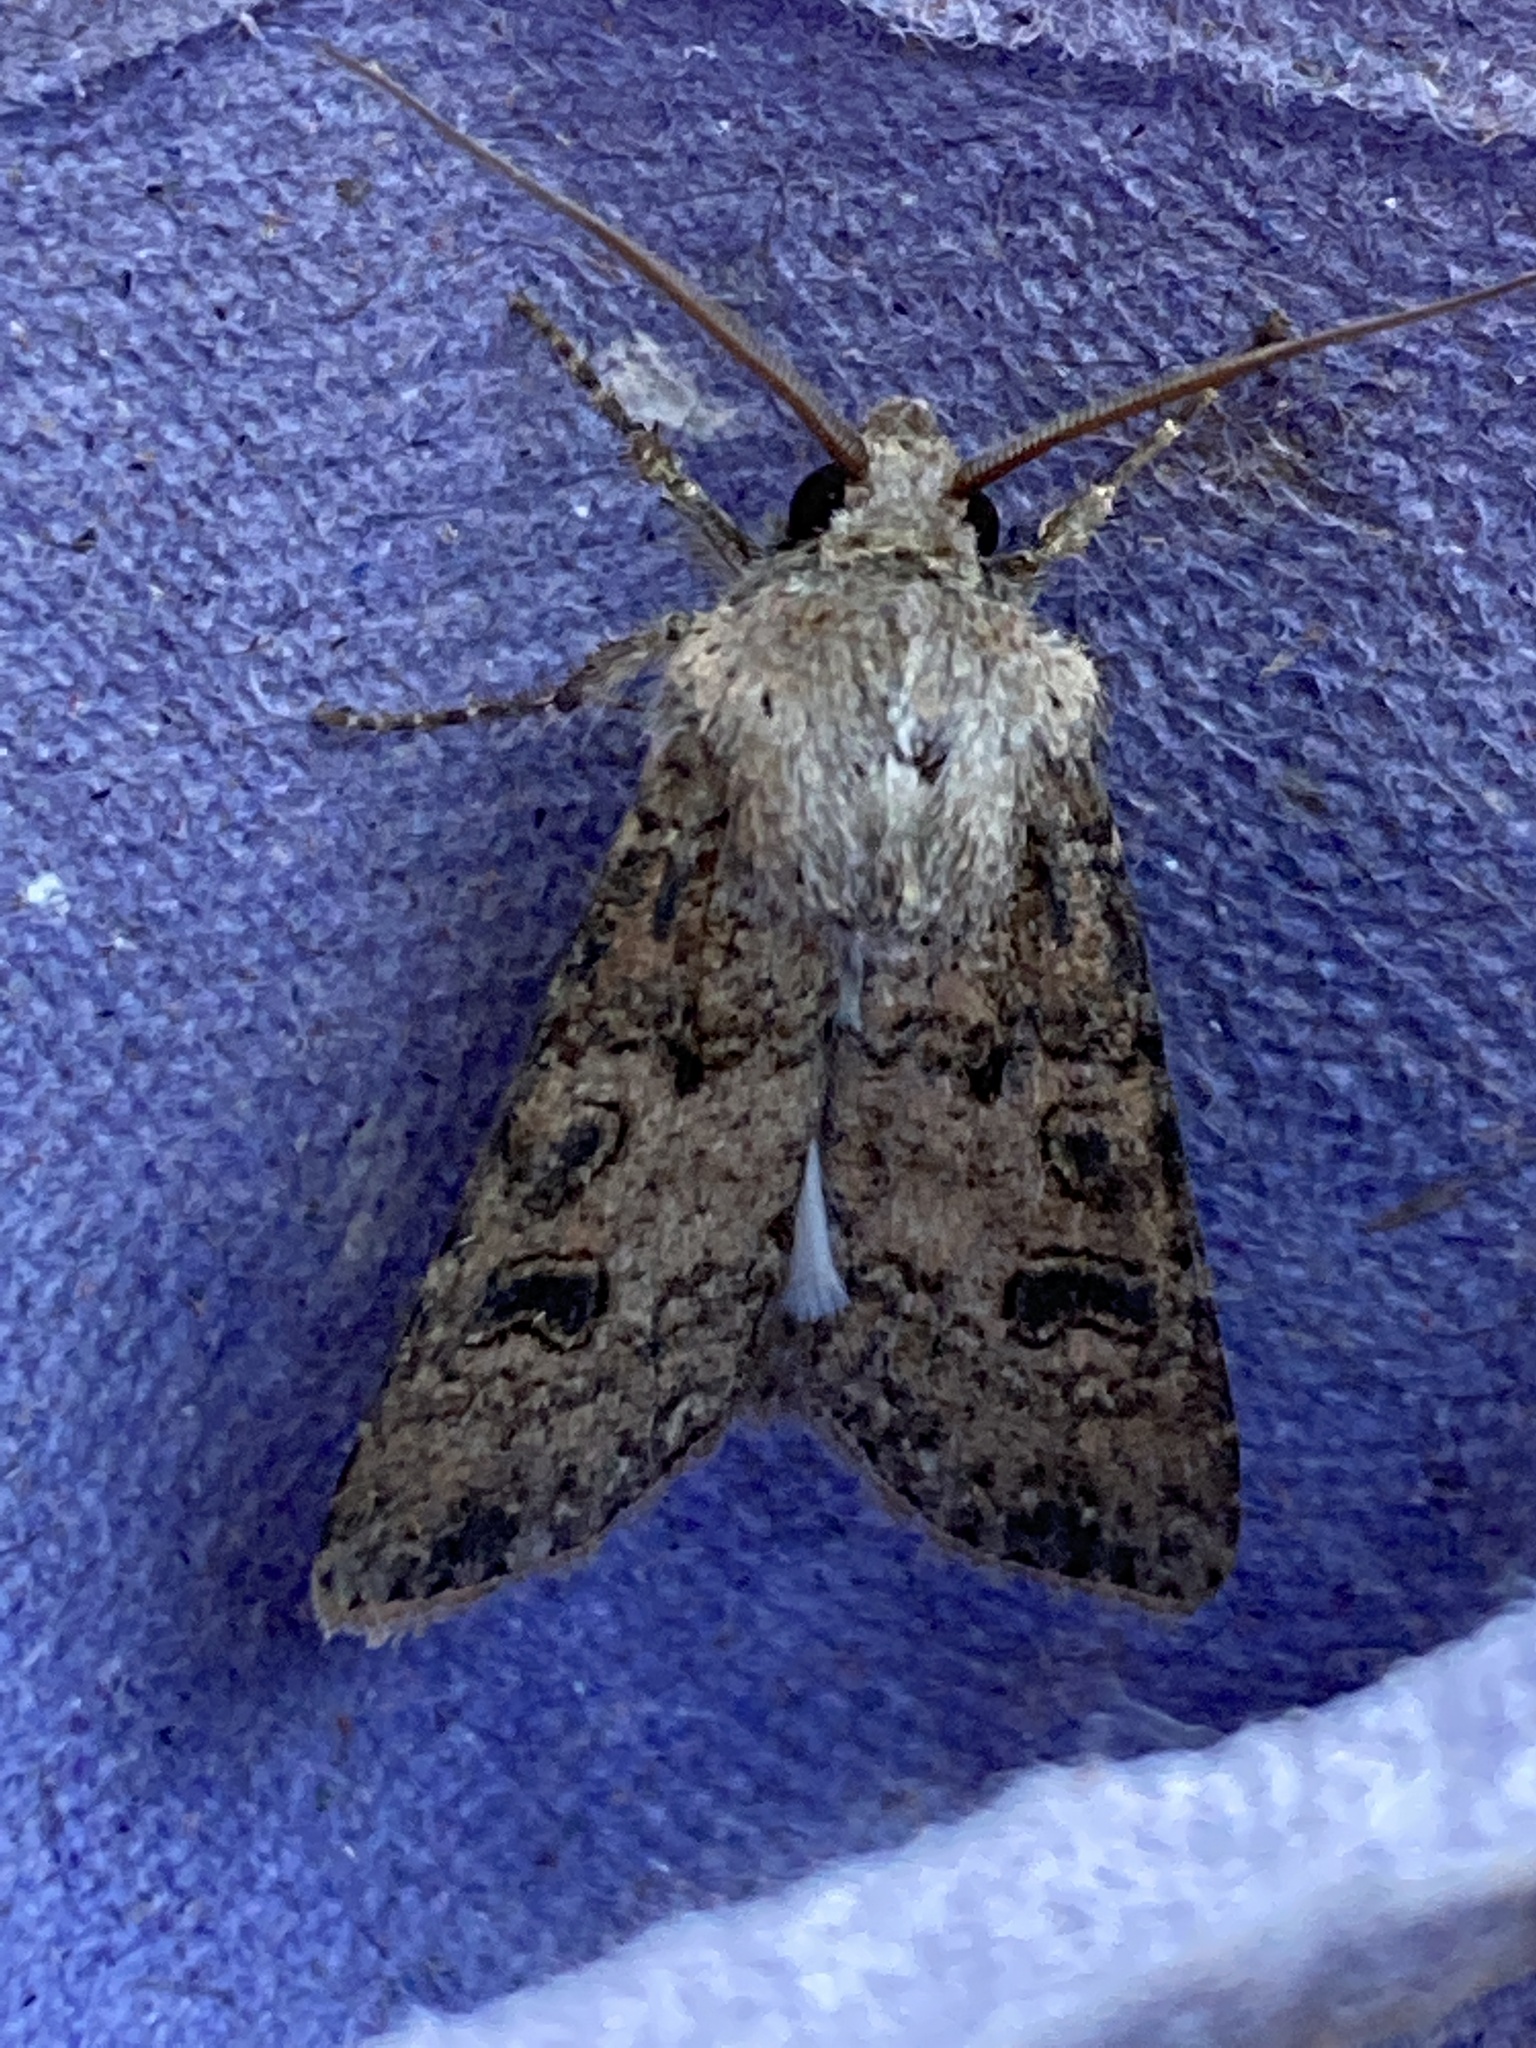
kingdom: Animalia
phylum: Arthropoda
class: Insecta
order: Lepidoptera
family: Noctuidae
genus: Agrotis
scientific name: Agrotis segetum
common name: Turnip moth
